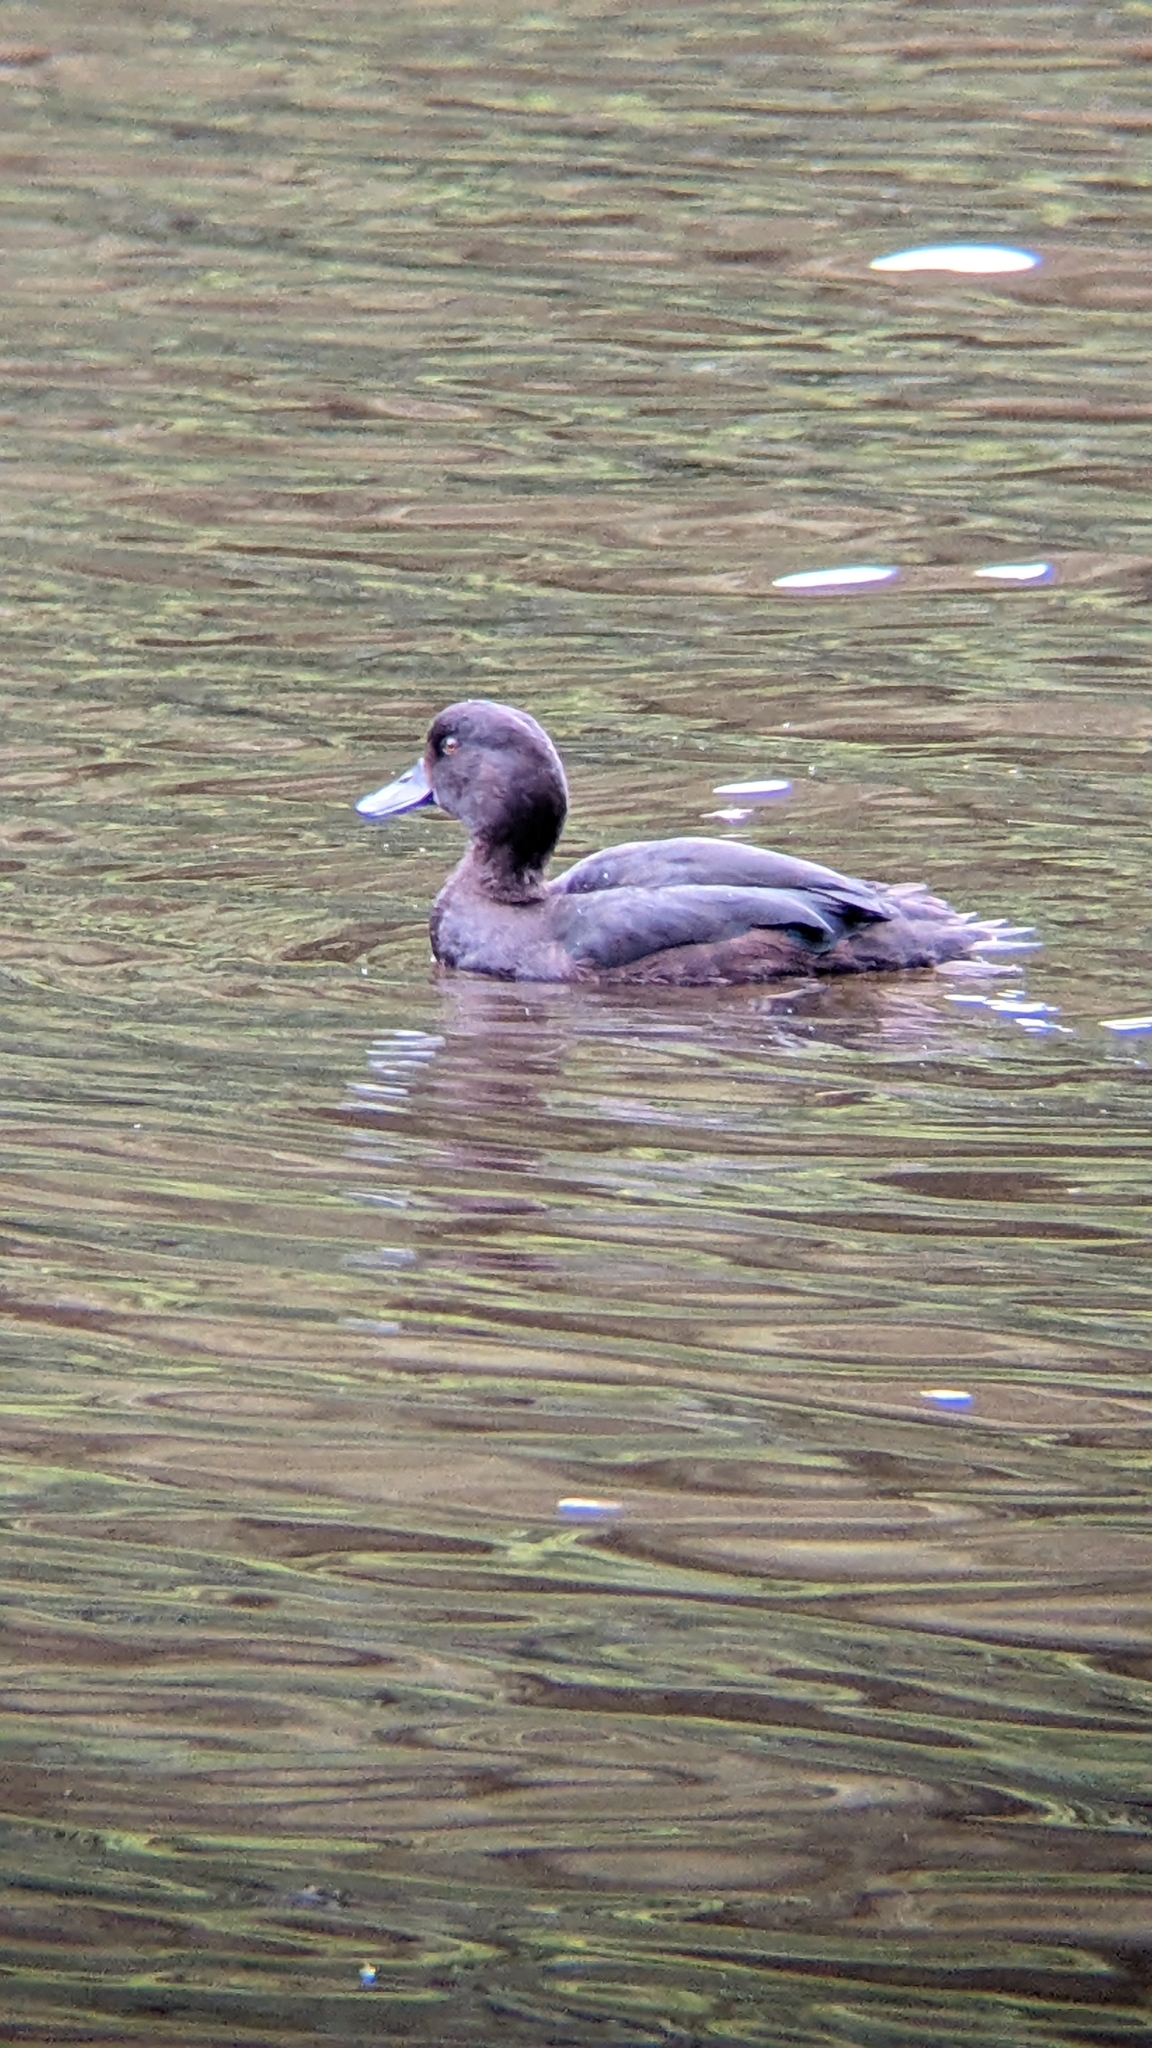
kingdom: Animalia
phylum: Chordata
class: Aves
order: Anseriformes
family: Anatidae
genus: Aythya
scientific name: Aythya novaeseelandiae
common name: New zealand scaup
